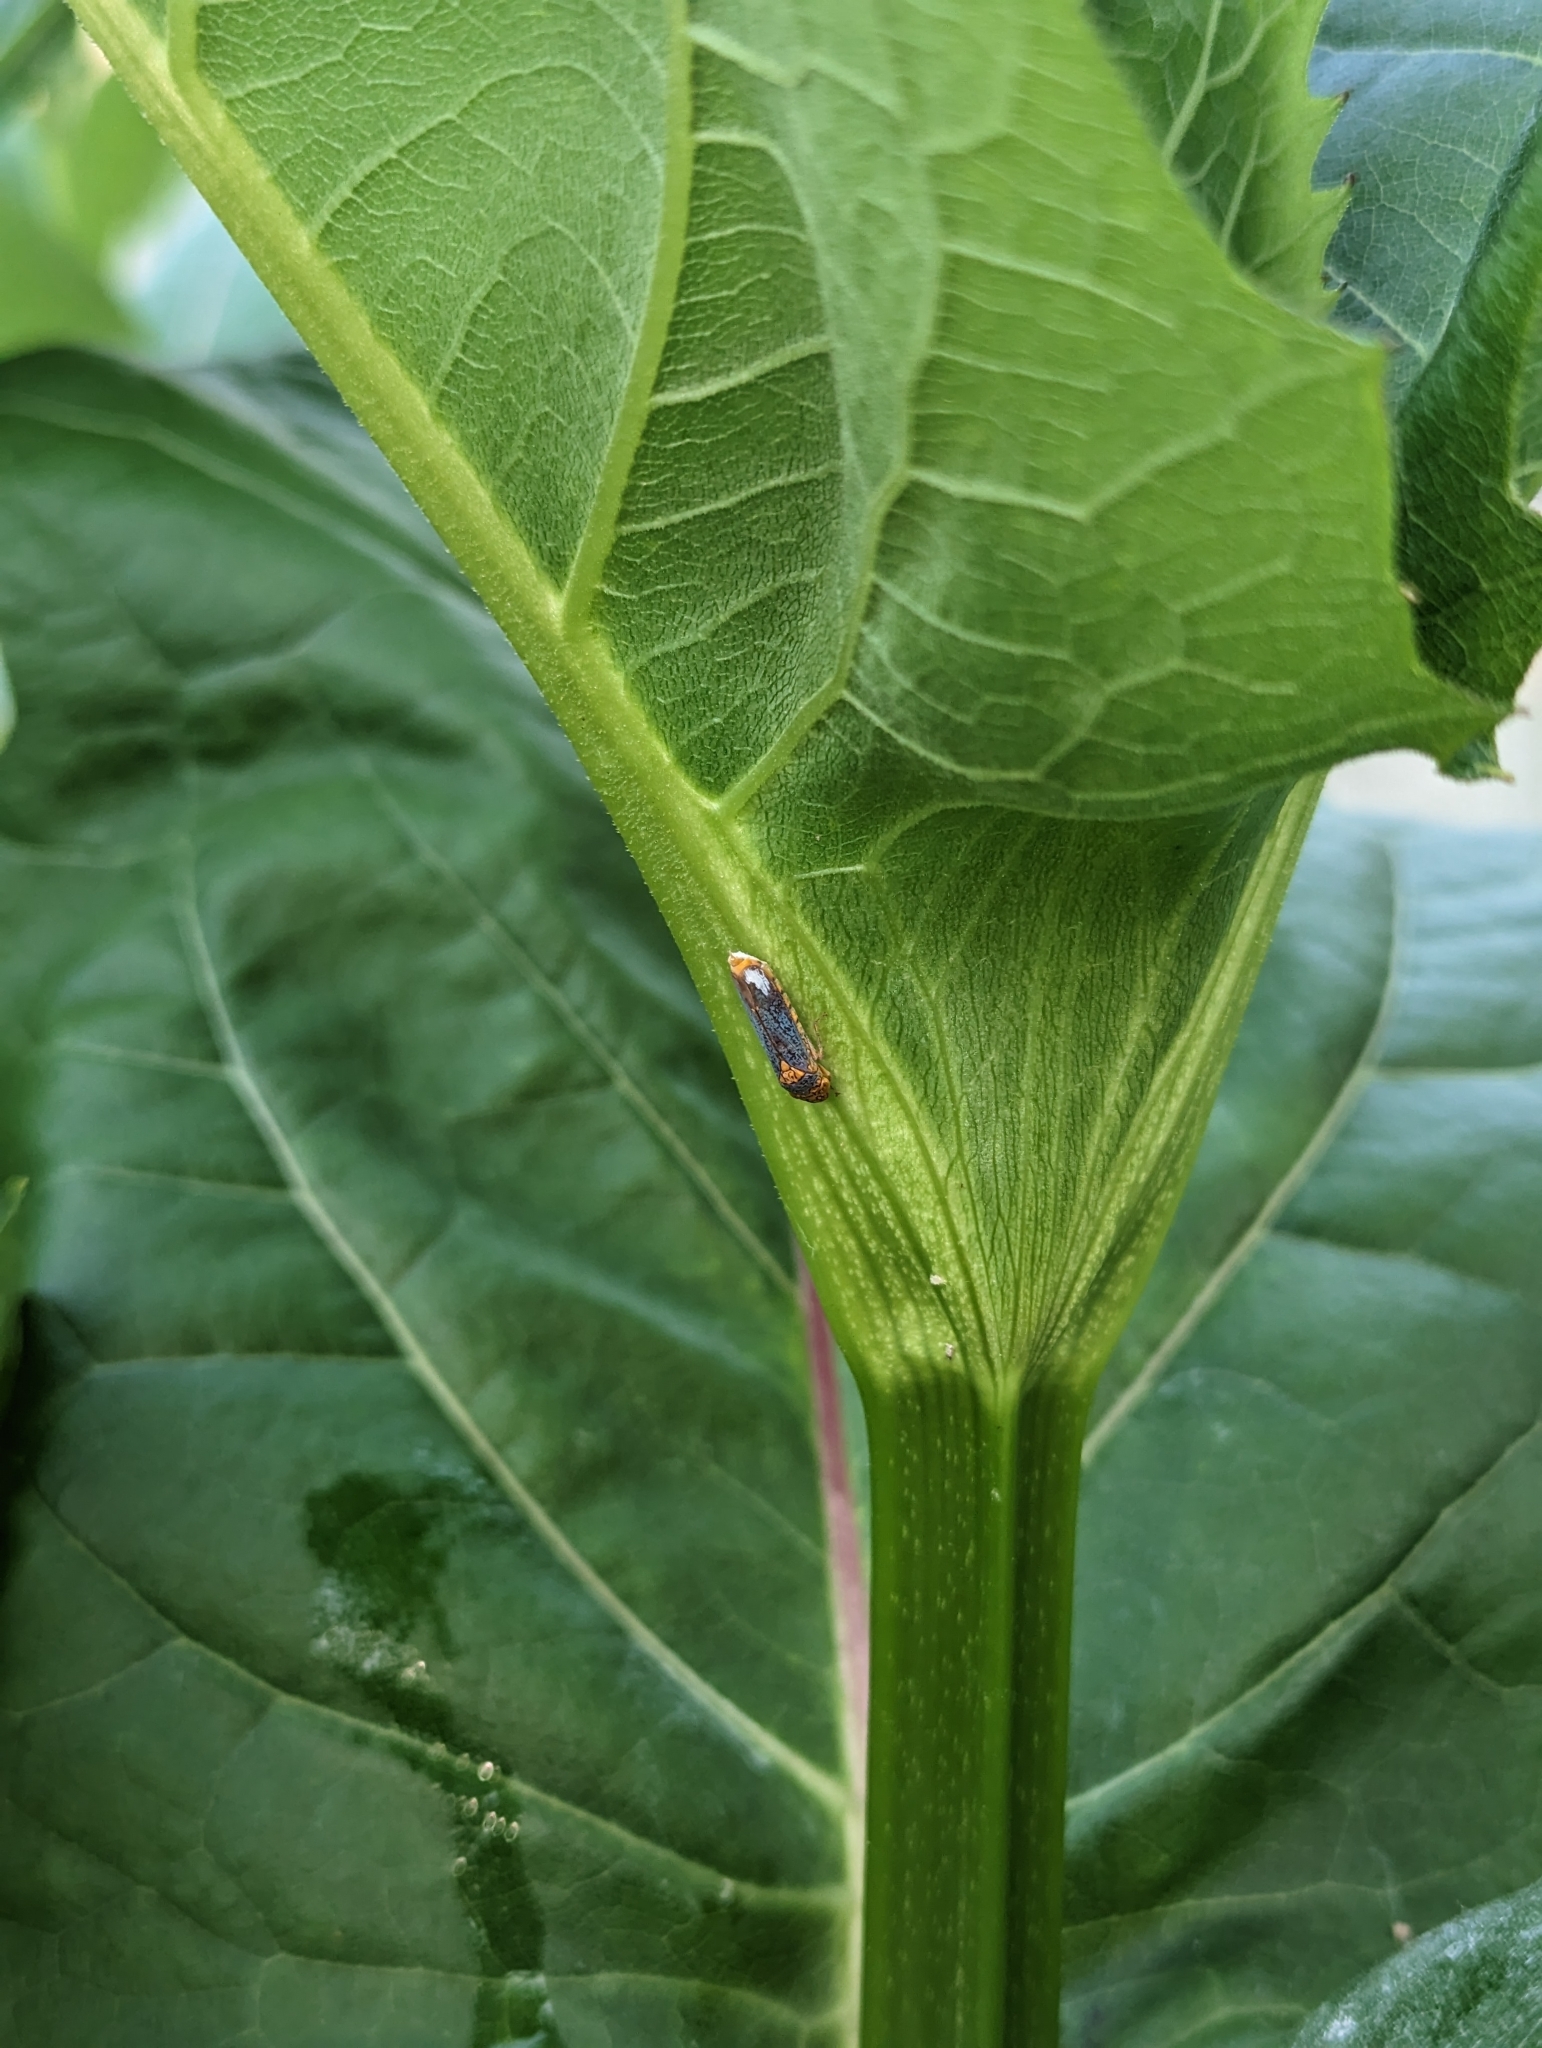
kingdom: Animalia
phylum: Arthropoda
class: Insecta
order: Hemiptera
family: Cicadellidae
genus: Oncometopia
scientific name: Oncometopia orbona
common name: Broad-headed sharpshooter
